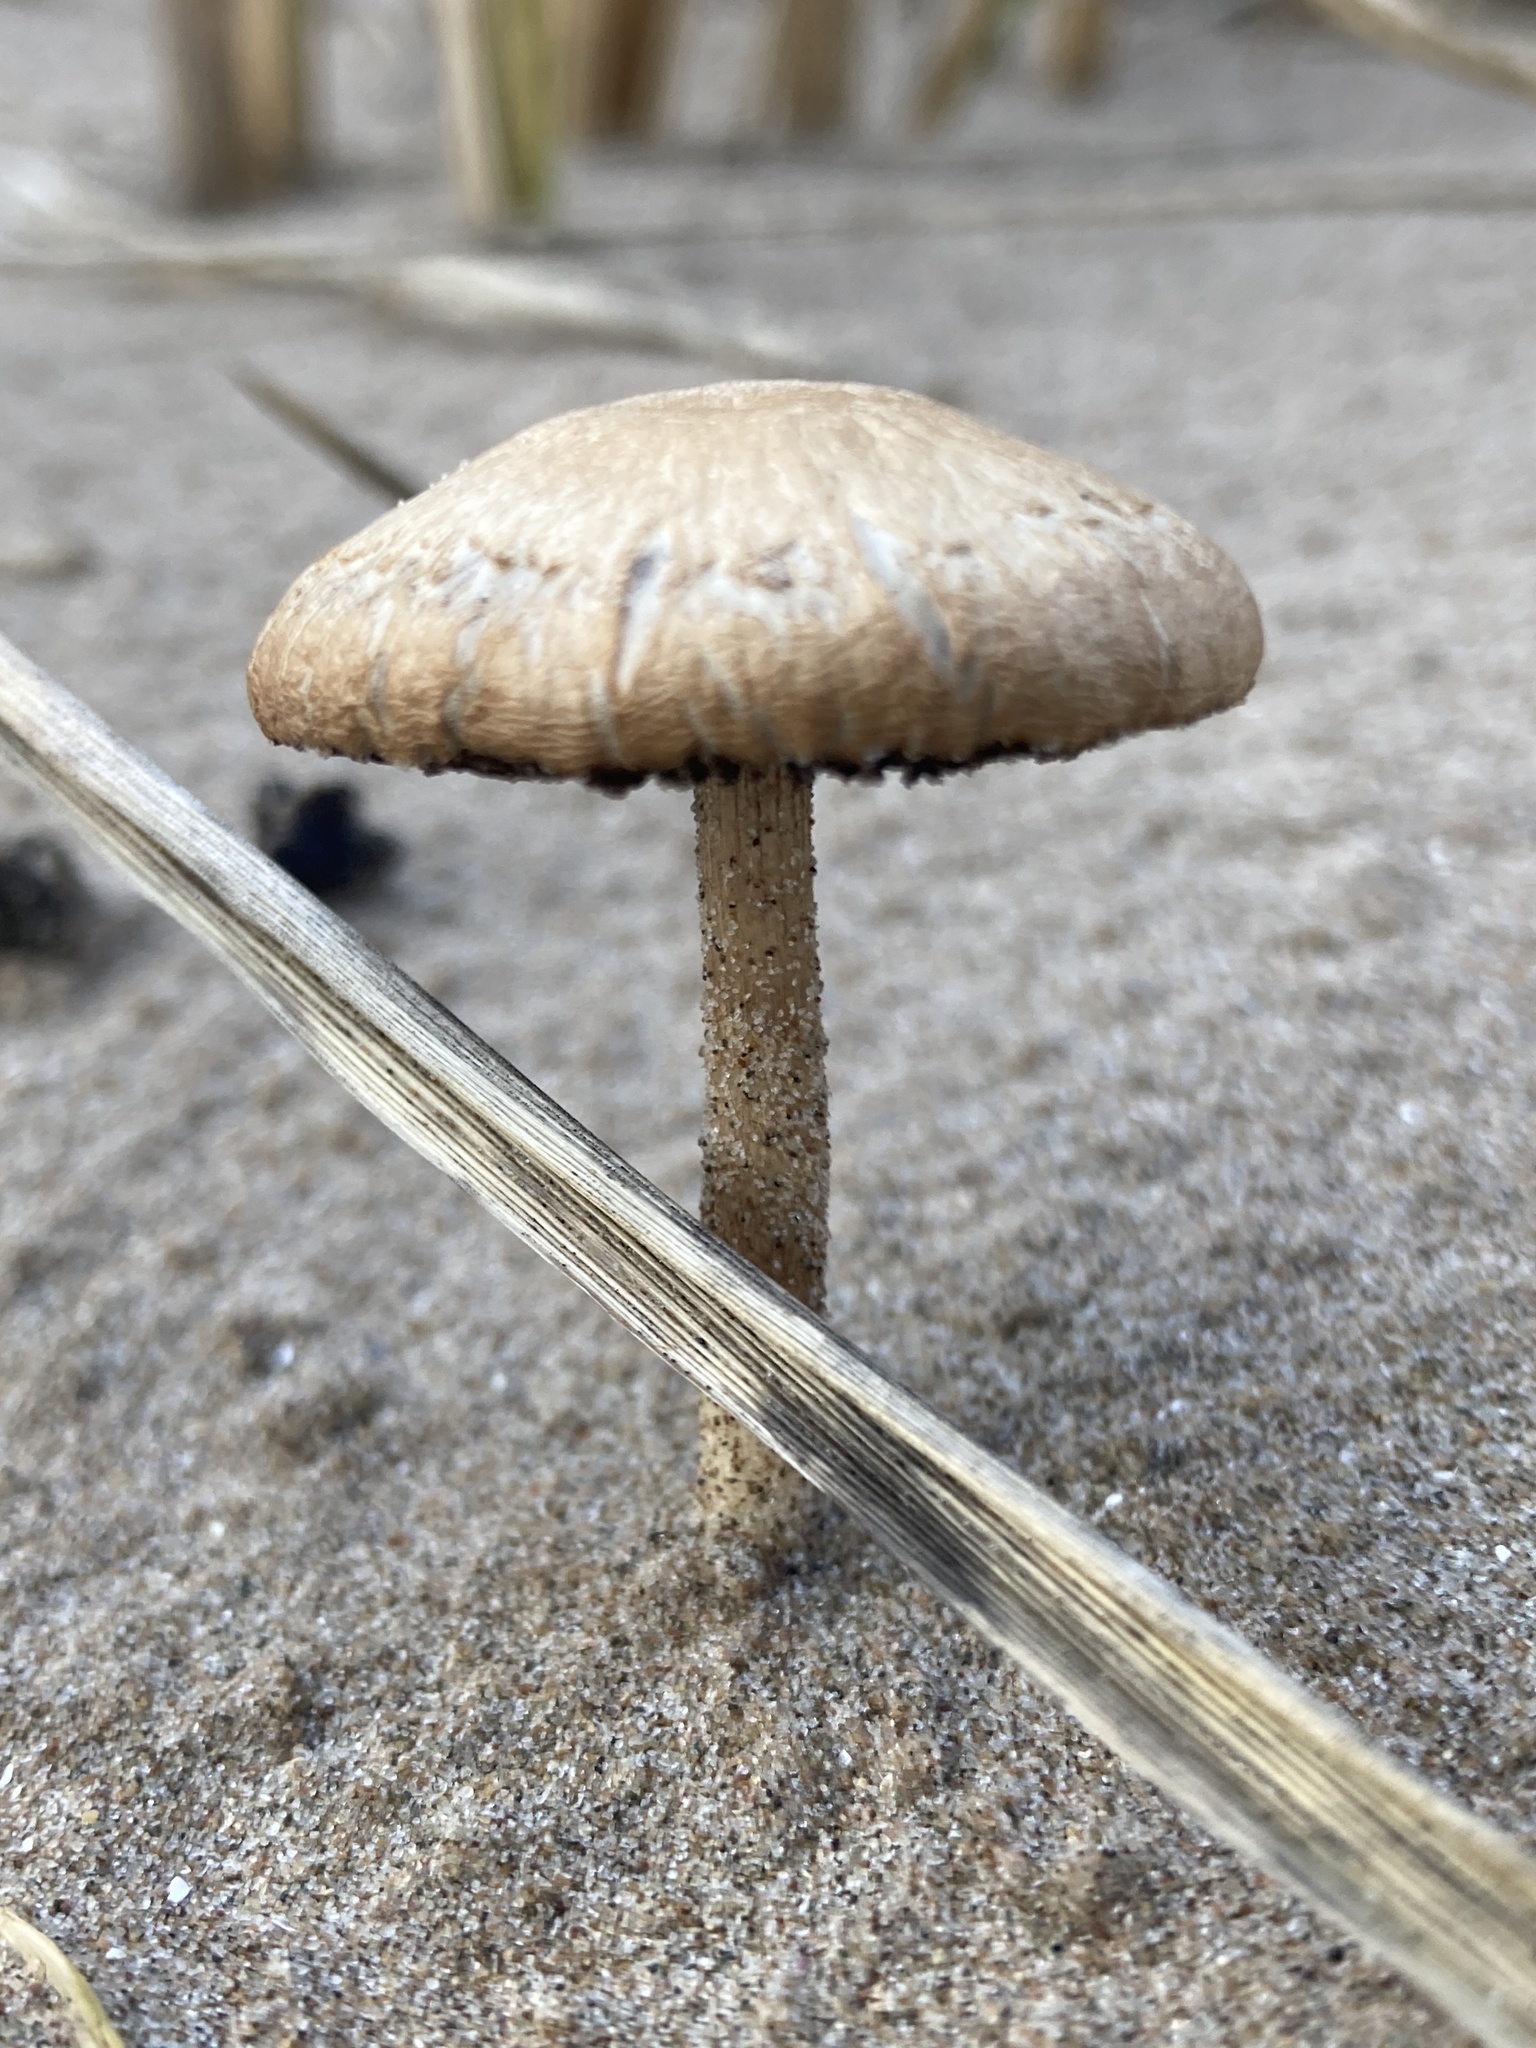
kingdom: Fungi
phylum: Basidiomycota
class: Agaricomycetes
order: Agaricales
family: Psathyrellaceae
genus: Psathyrella
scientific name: Psathyrella ammophila
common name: Dune brittlestem
